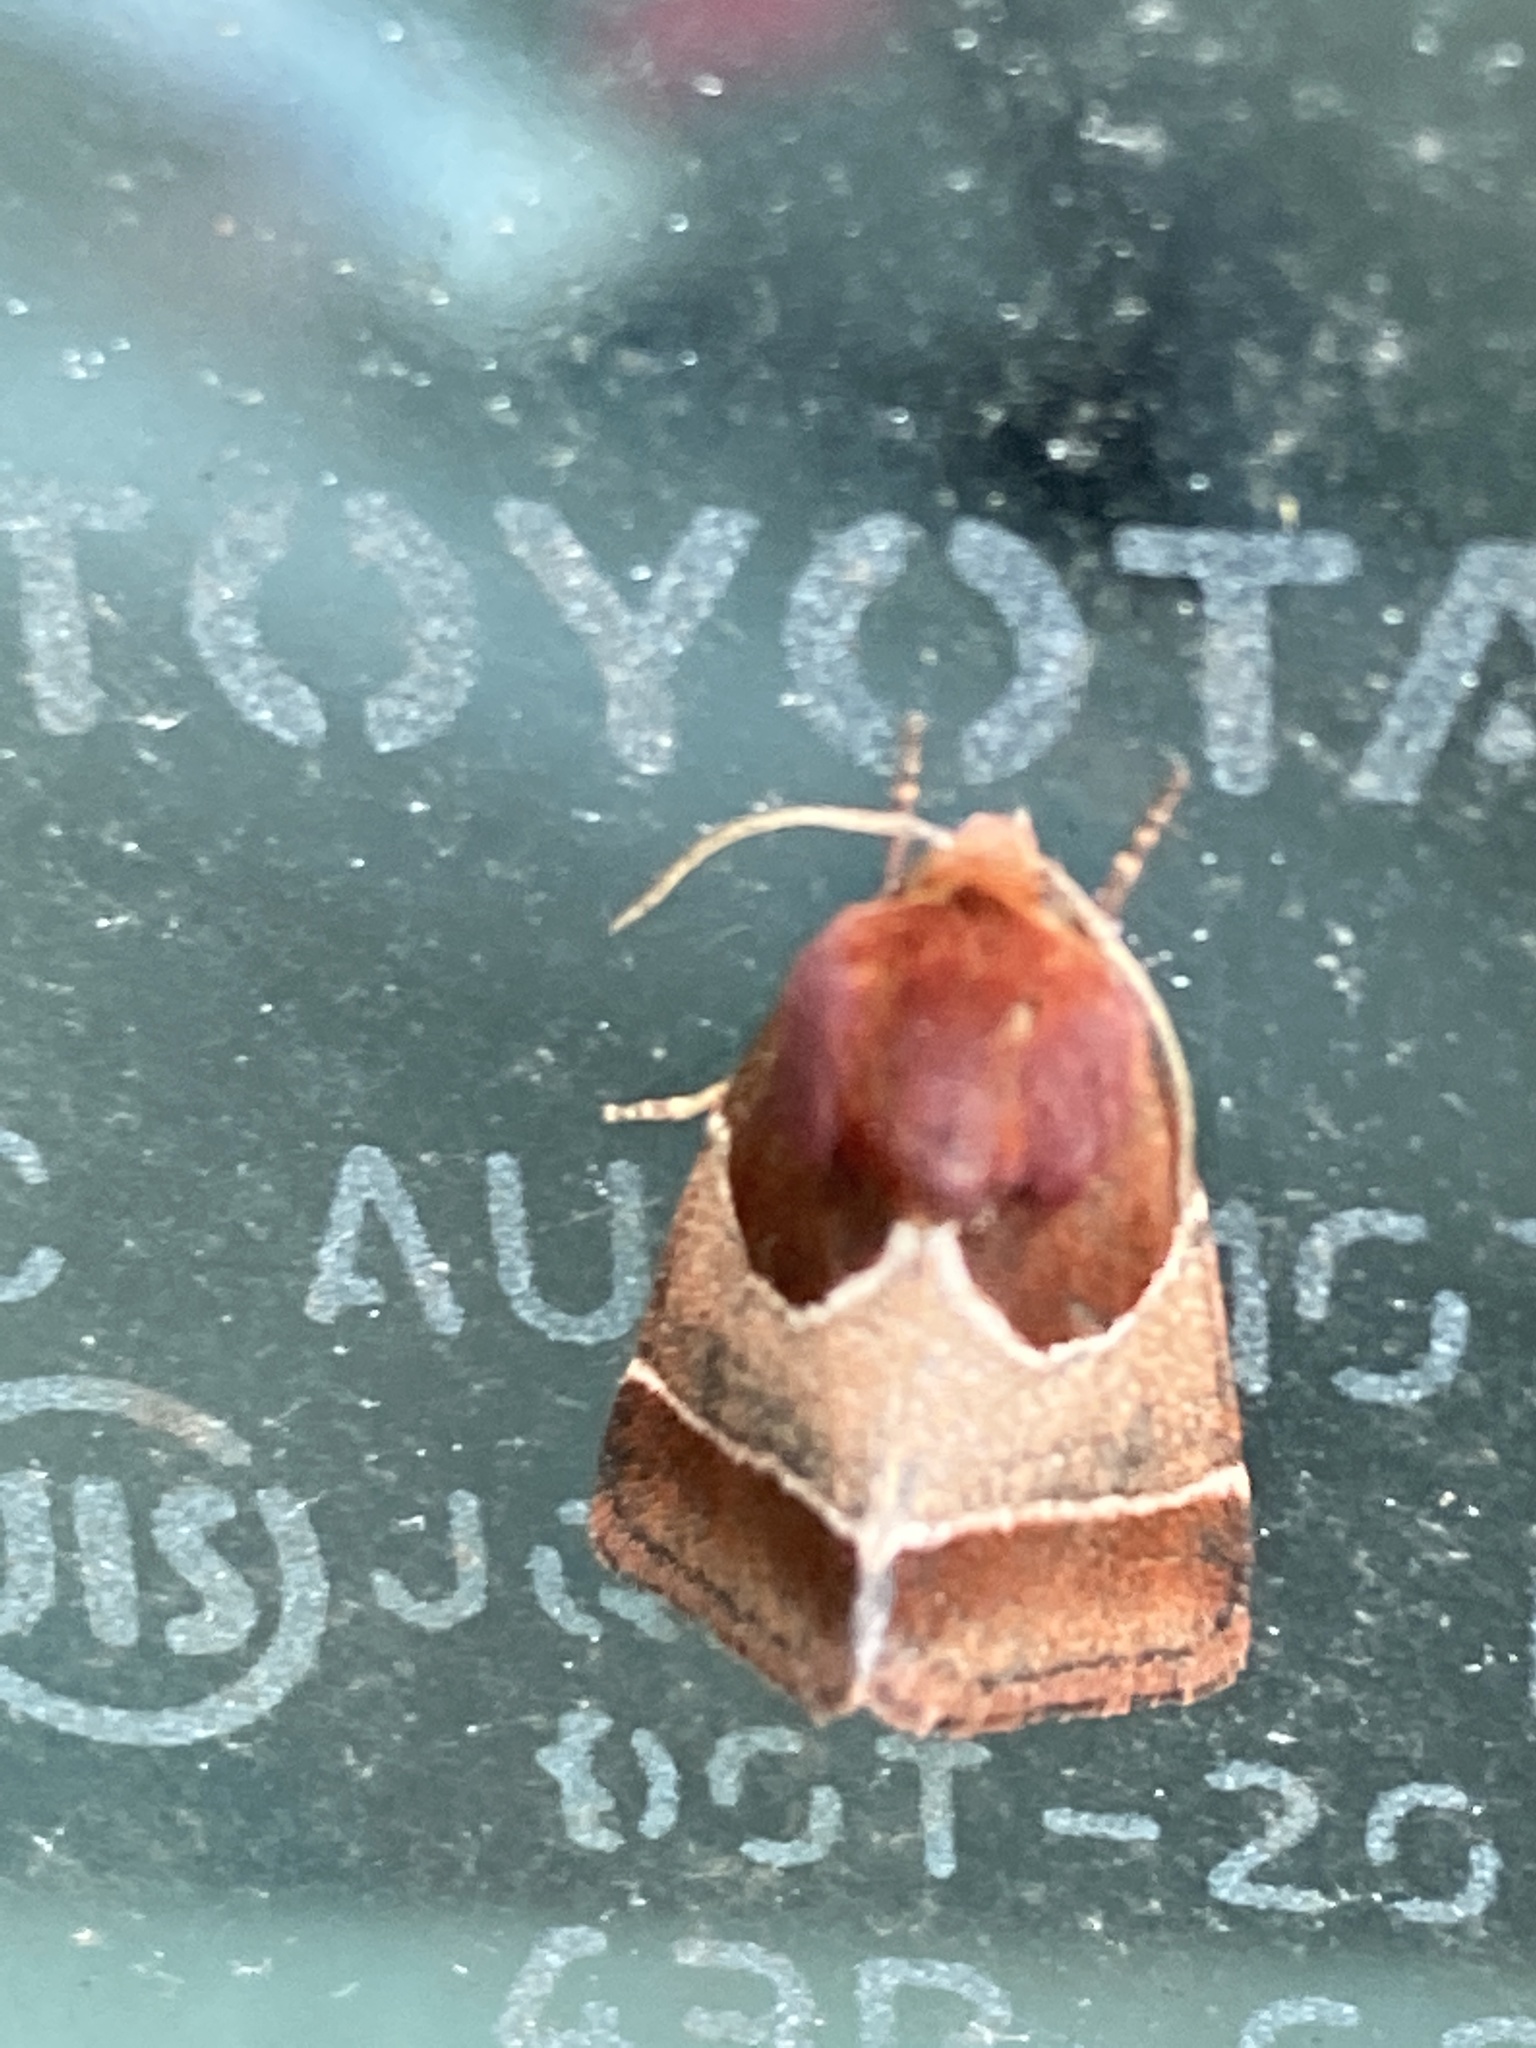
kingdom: Animalia
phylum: Arthropoda
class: Insecta
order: Lepidoptera
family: Noctuidae
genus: Schinia
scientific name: Schinia arcigera
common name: Arcigera flower moth
